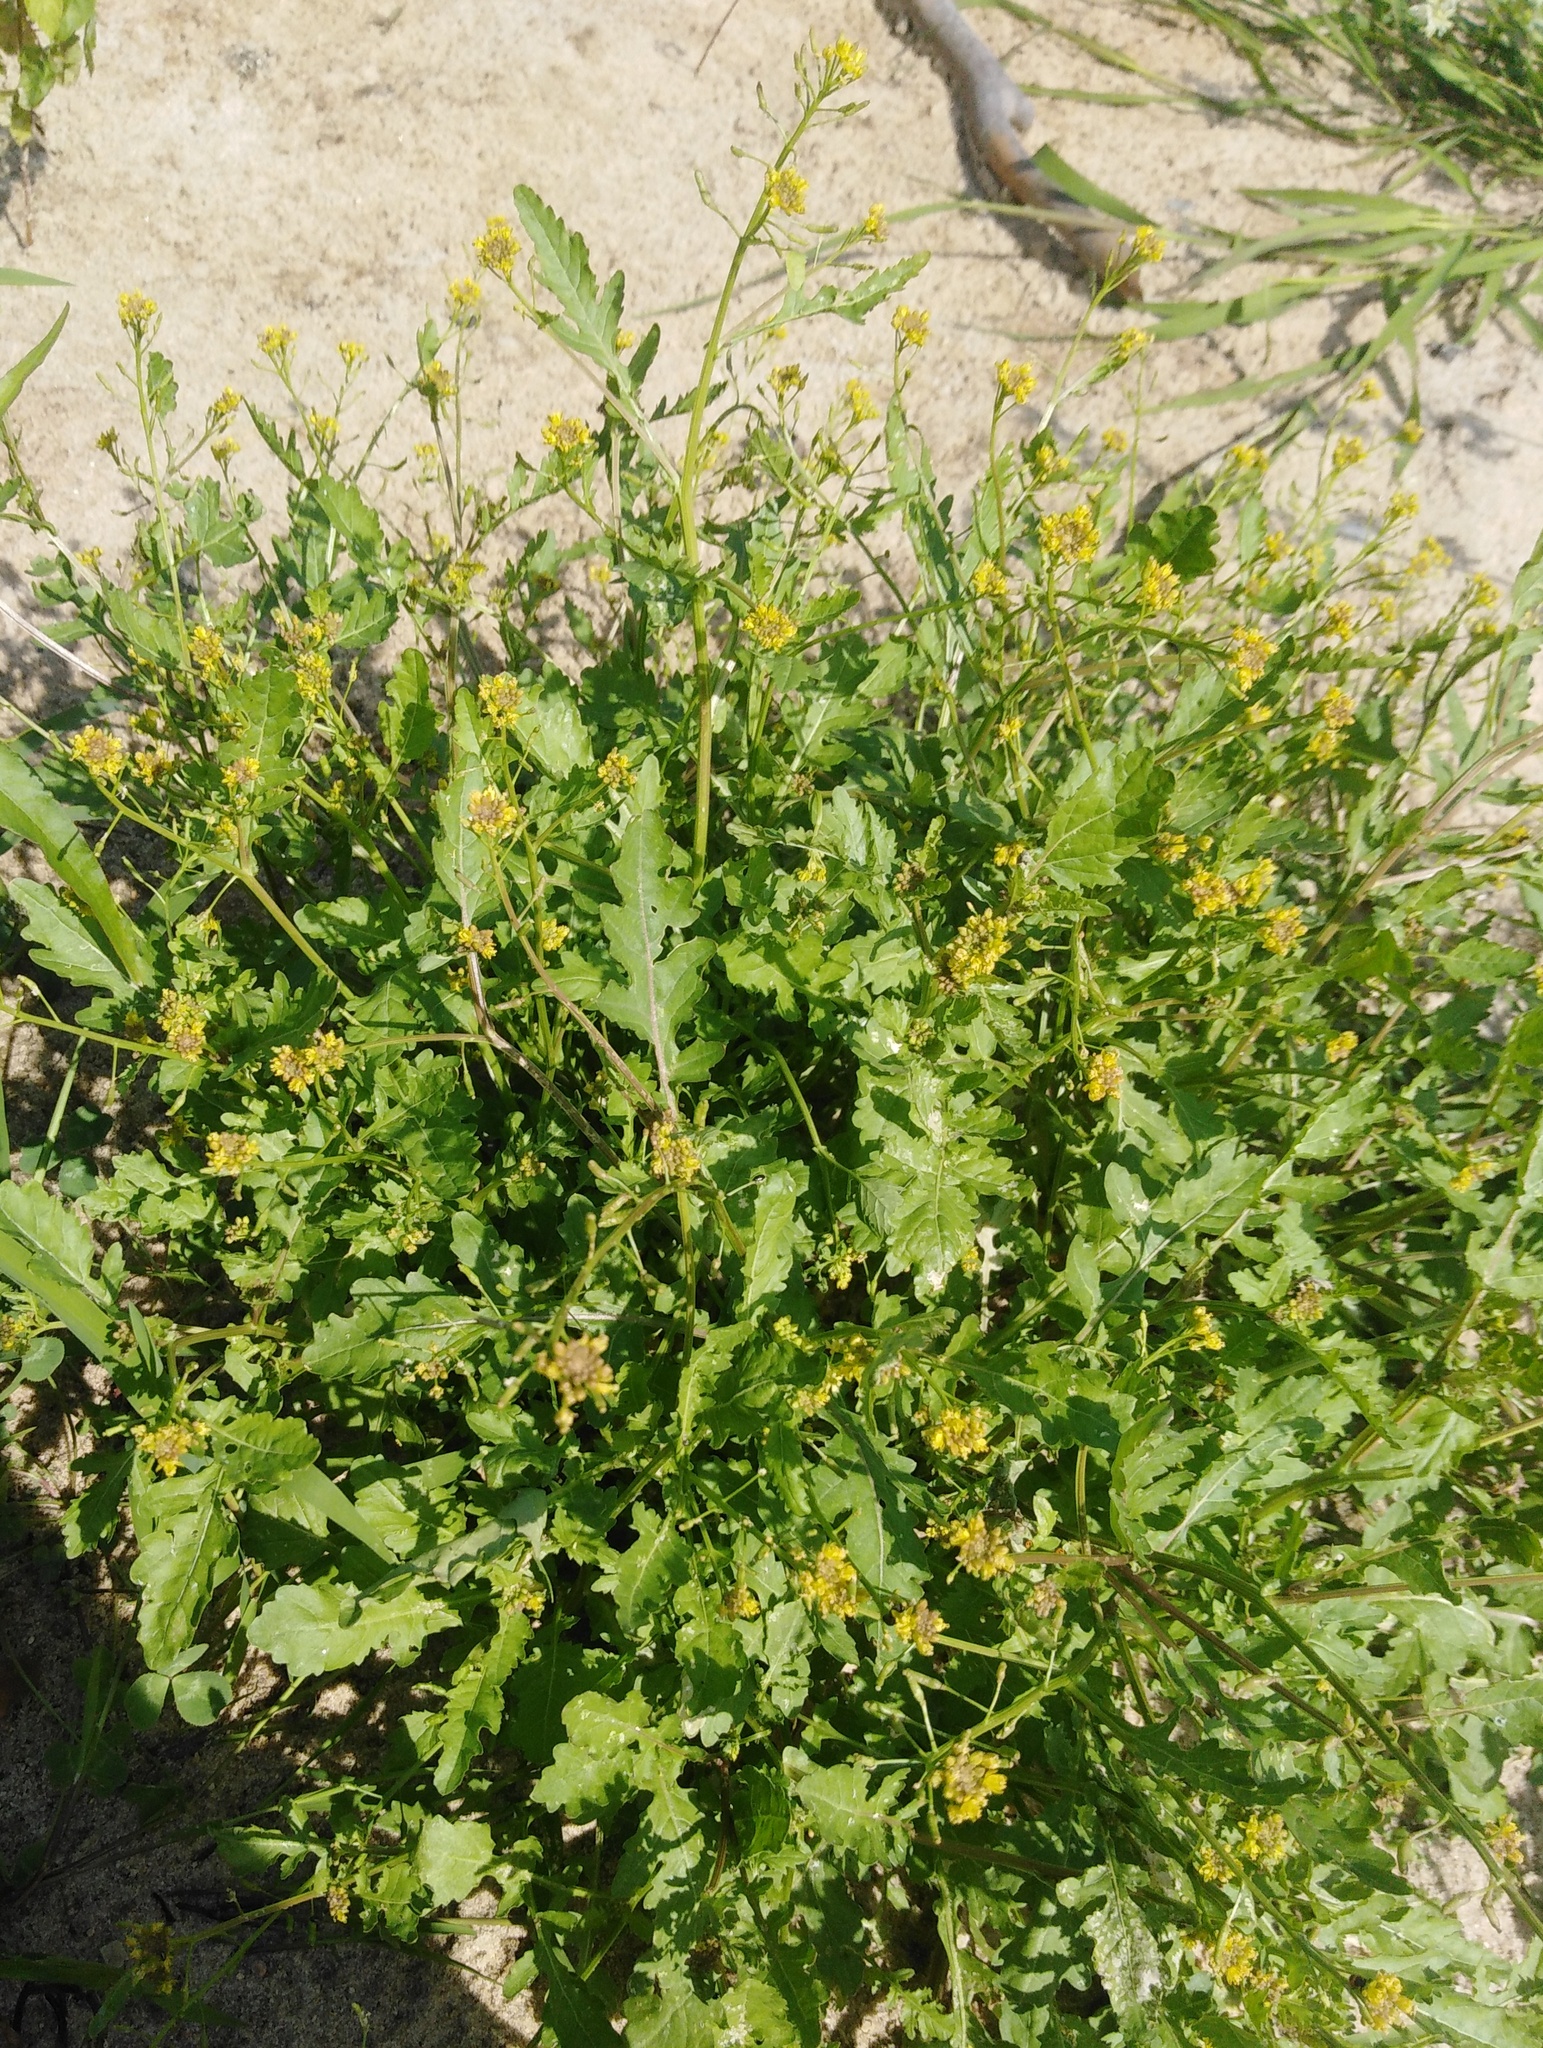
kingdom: Plantae
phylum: Tracheophyta
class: Magnoliopsida
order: Brassicales
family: Brassicaceae
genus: Rorippa
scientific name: Rorippa palustris
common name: Marsh yellow-cress
